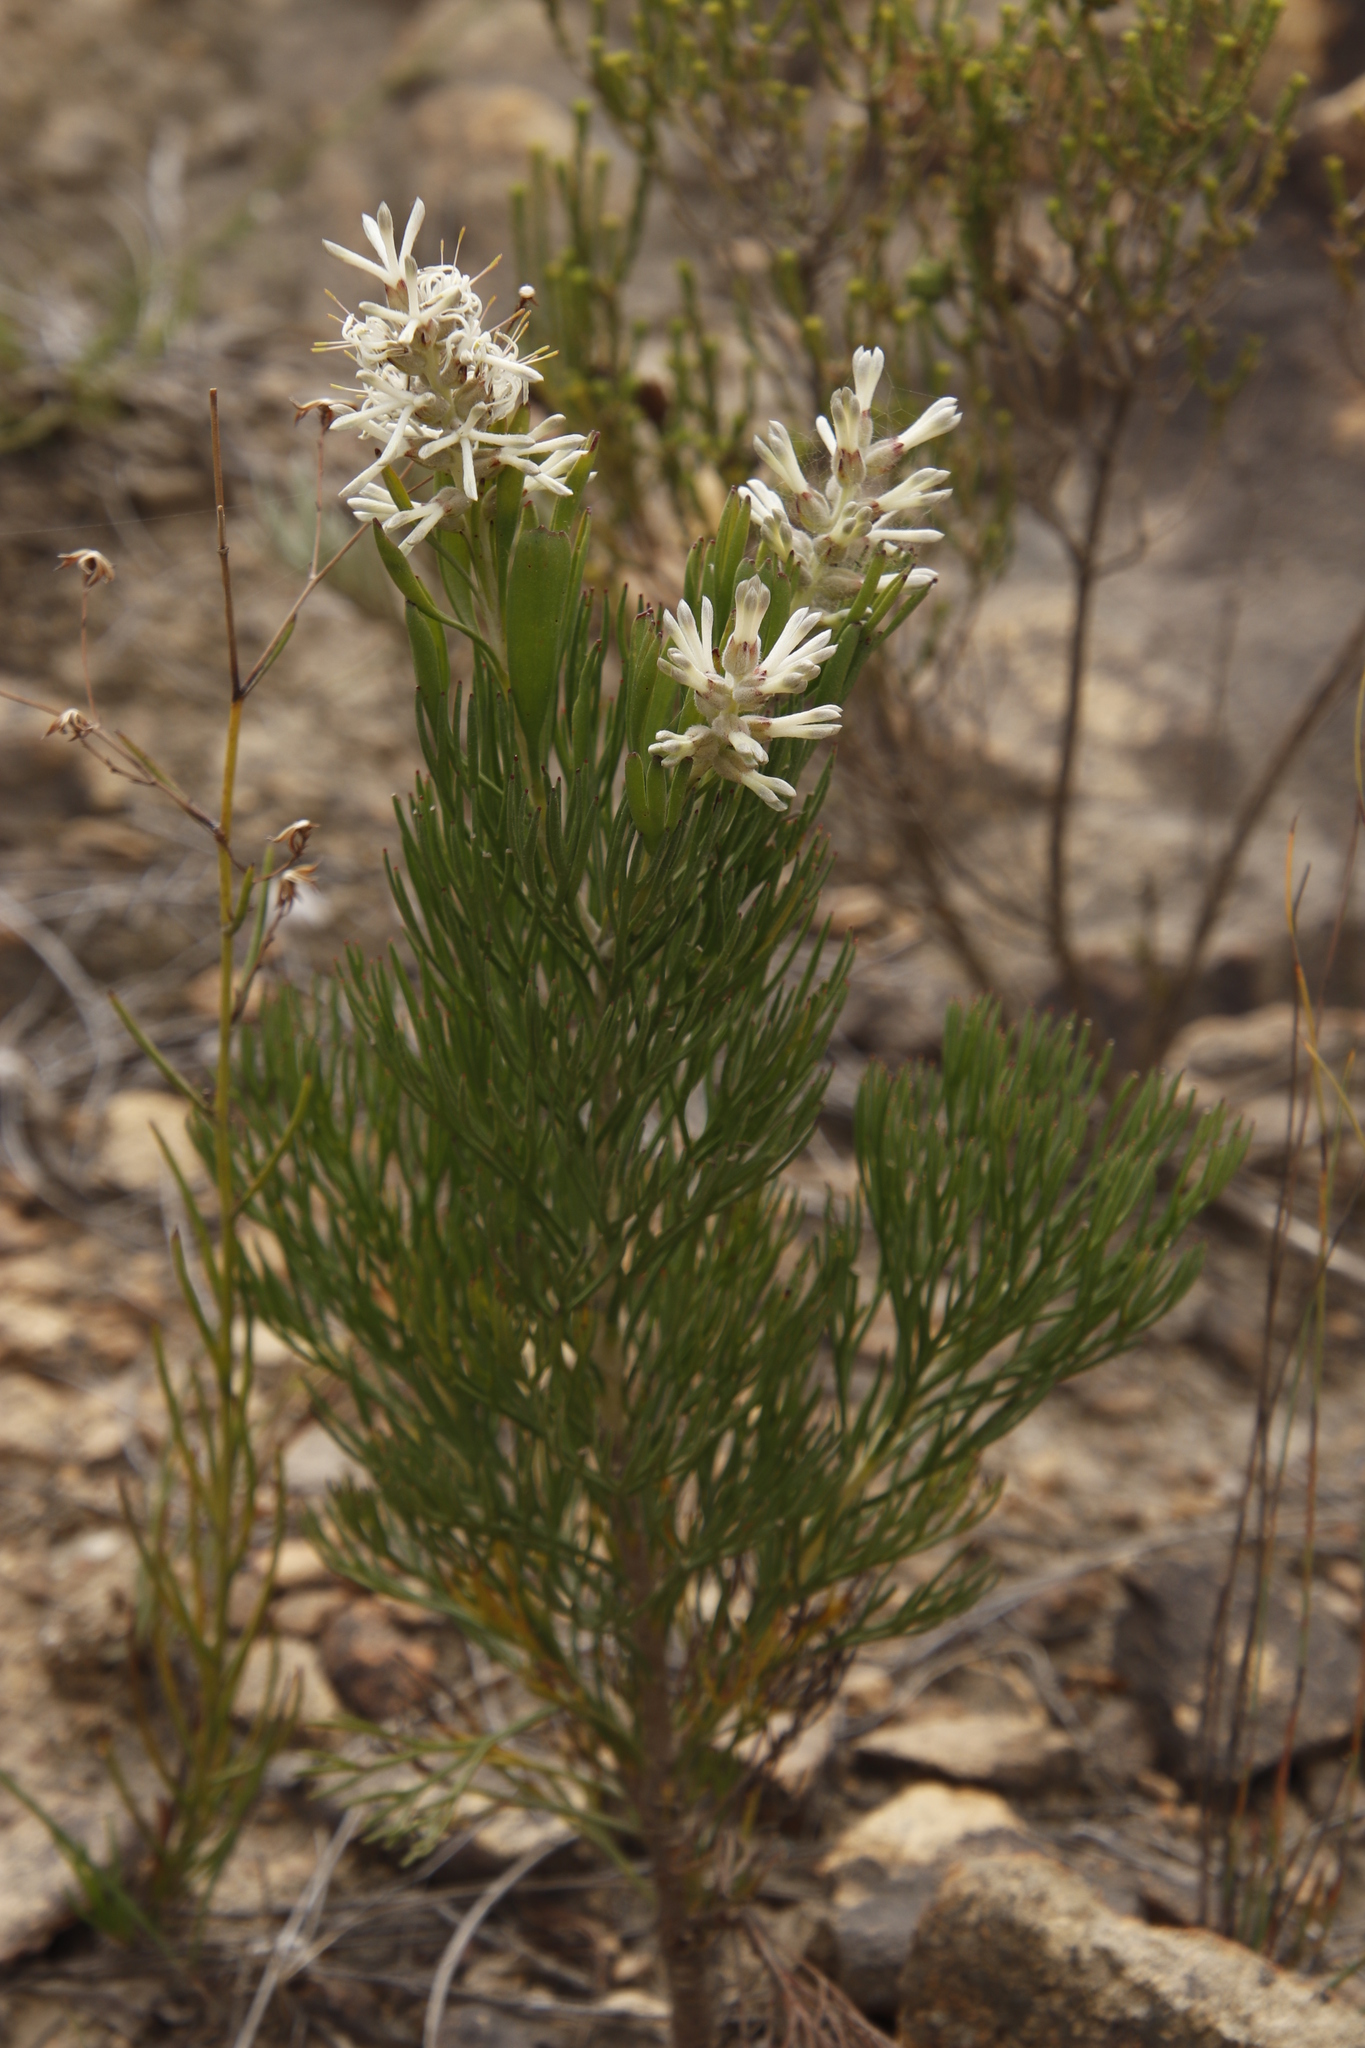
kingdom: Plantae
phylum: Tracheophyta
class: Magnoliopsida
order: Proteales
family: Proteaceae
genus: Paranomus
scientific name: Paranomus dregei
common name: Scented sceptre
